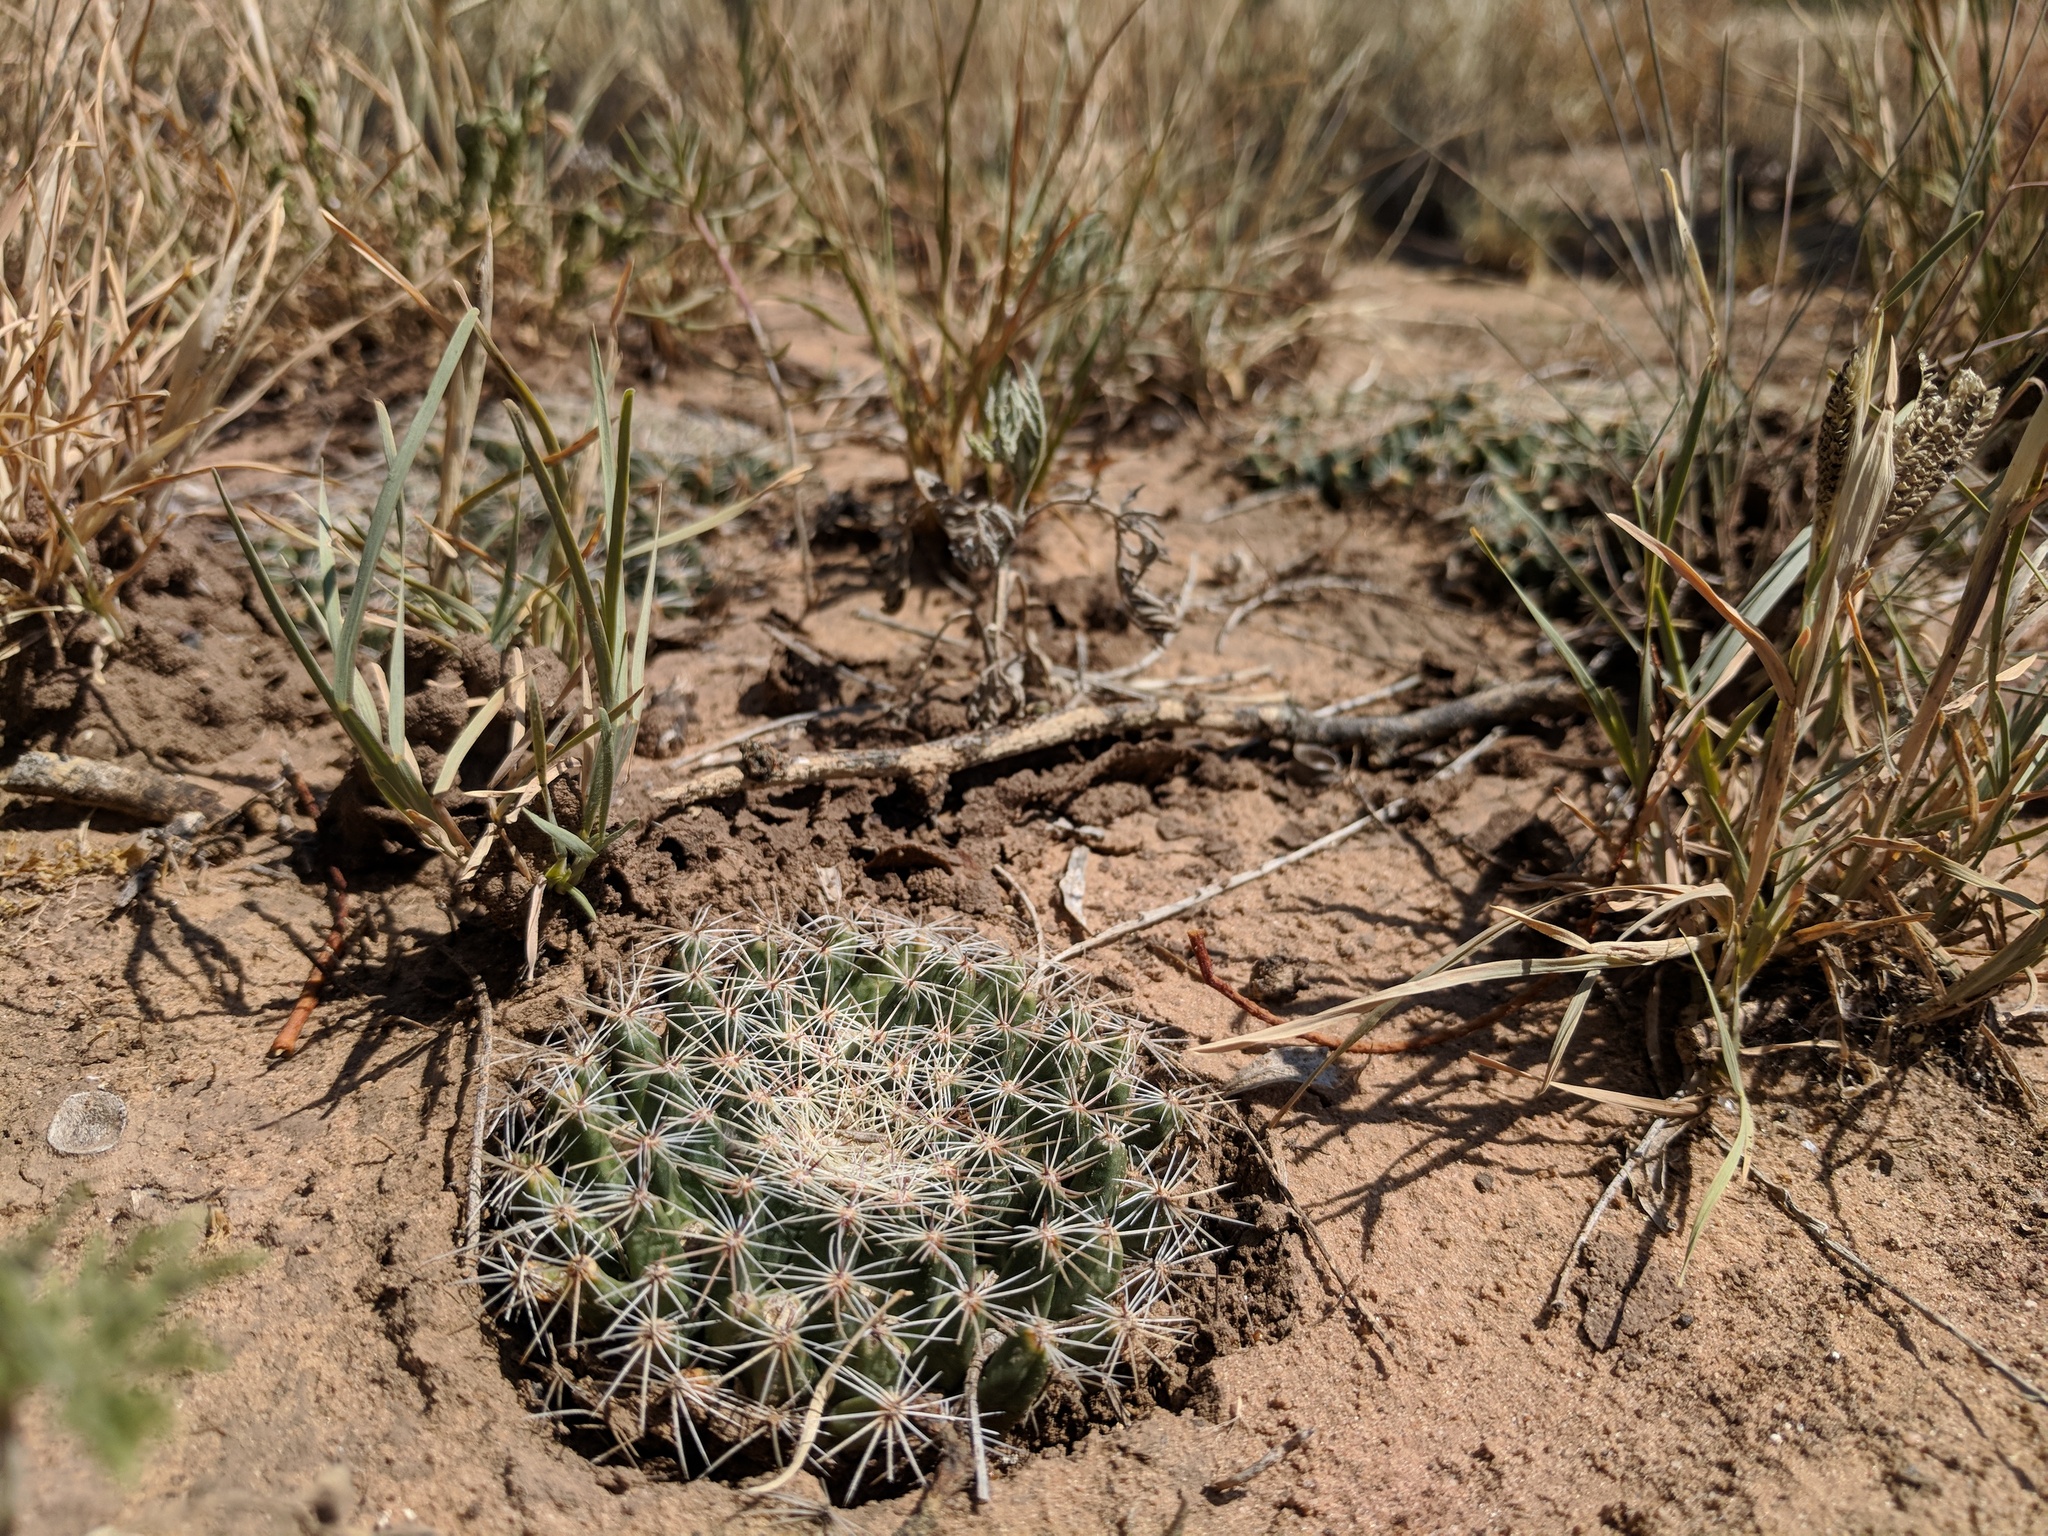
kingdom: Plantae
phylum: Tracheophyta
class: Magnoliopsida
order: Caryophyllales
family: Cactaceae
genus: Mammillaria
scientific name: Mammillaria heyderi
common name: Little nipple cactus
